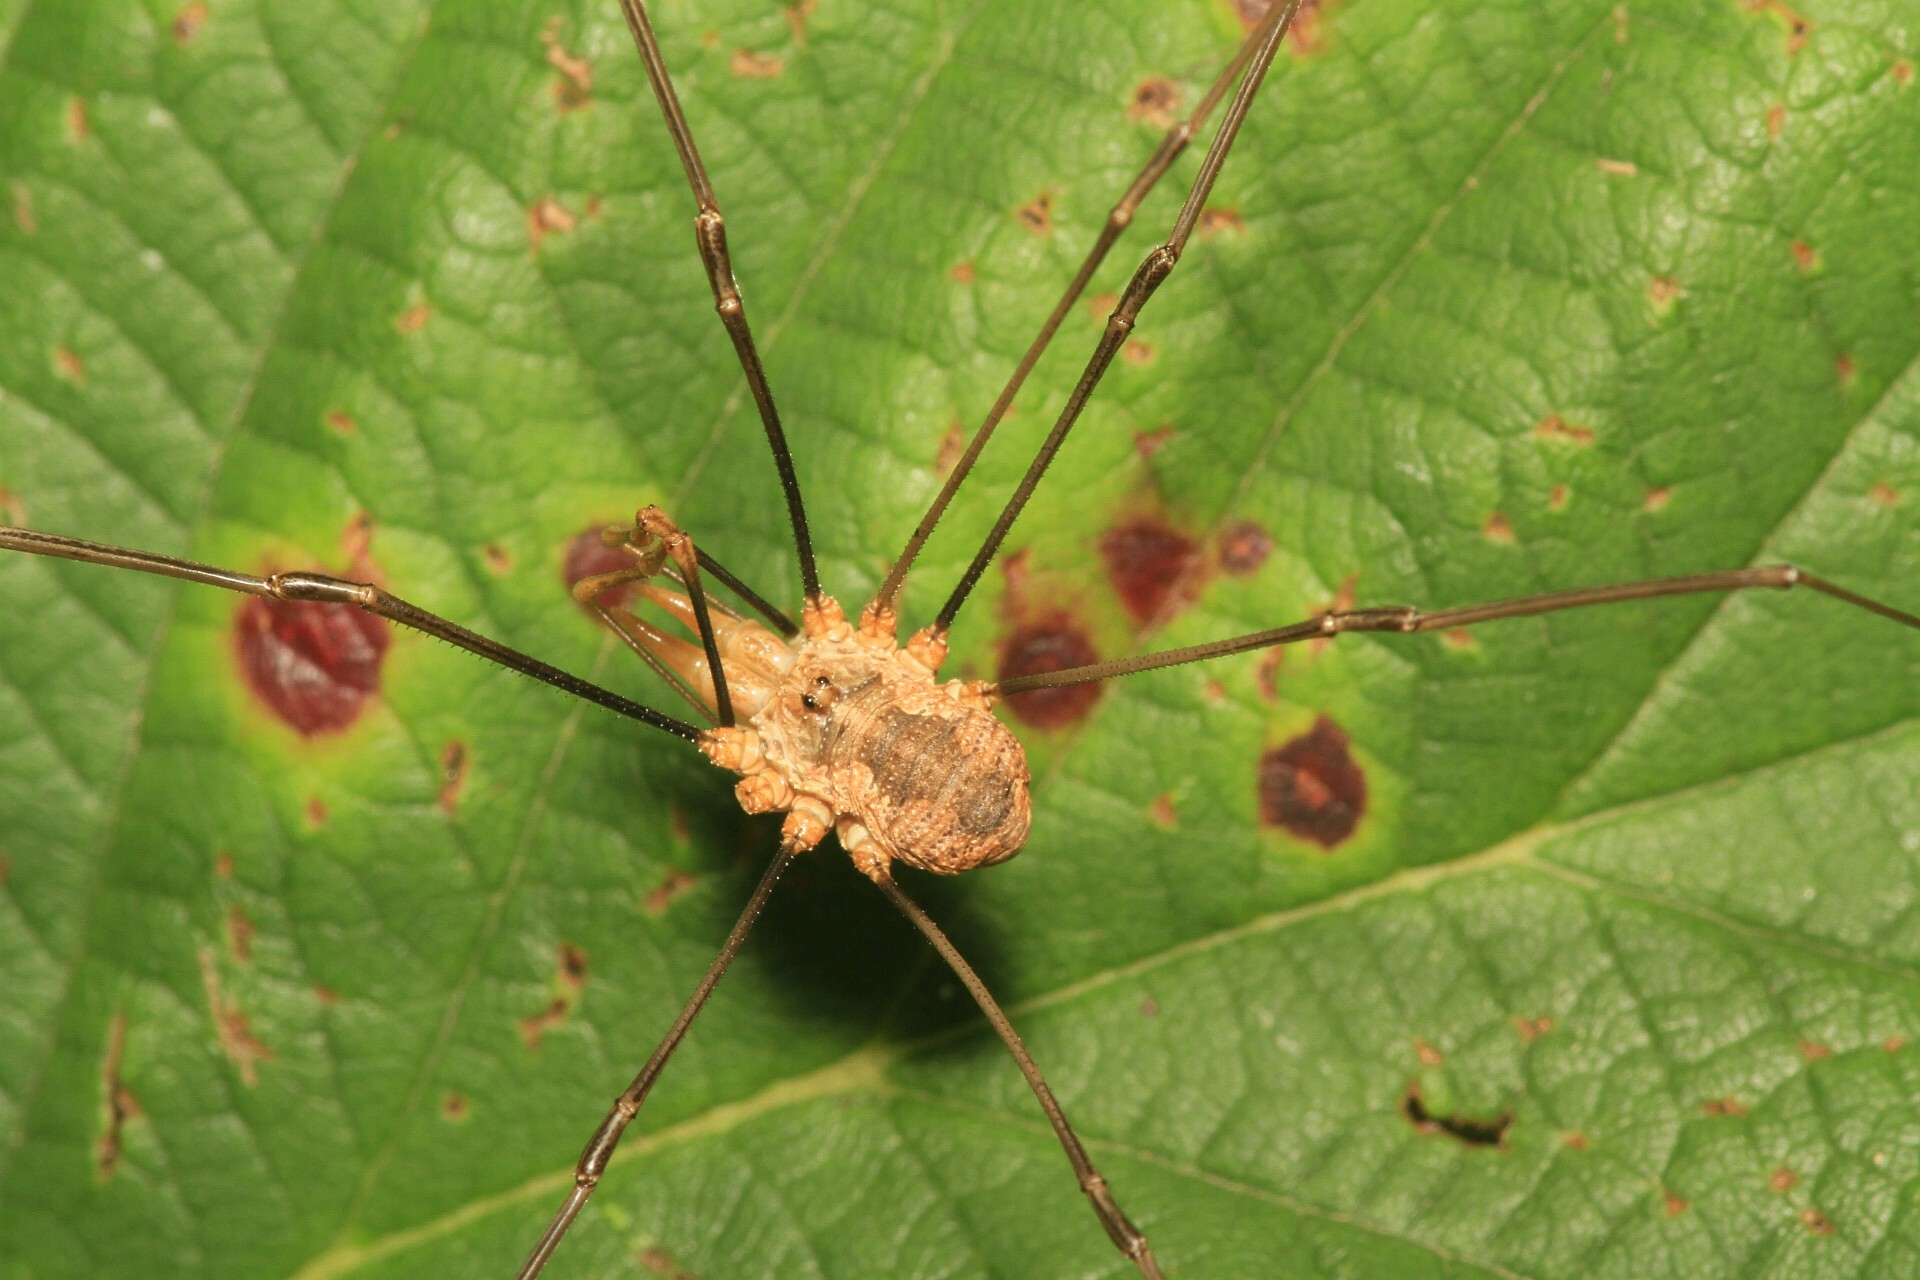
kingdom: Animalia
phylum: Arthropoda
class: Arachnida
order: Opiliones
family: Phalangiidae
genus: Phalangium
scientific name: Phalangium opilio
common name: Daddy longleg
